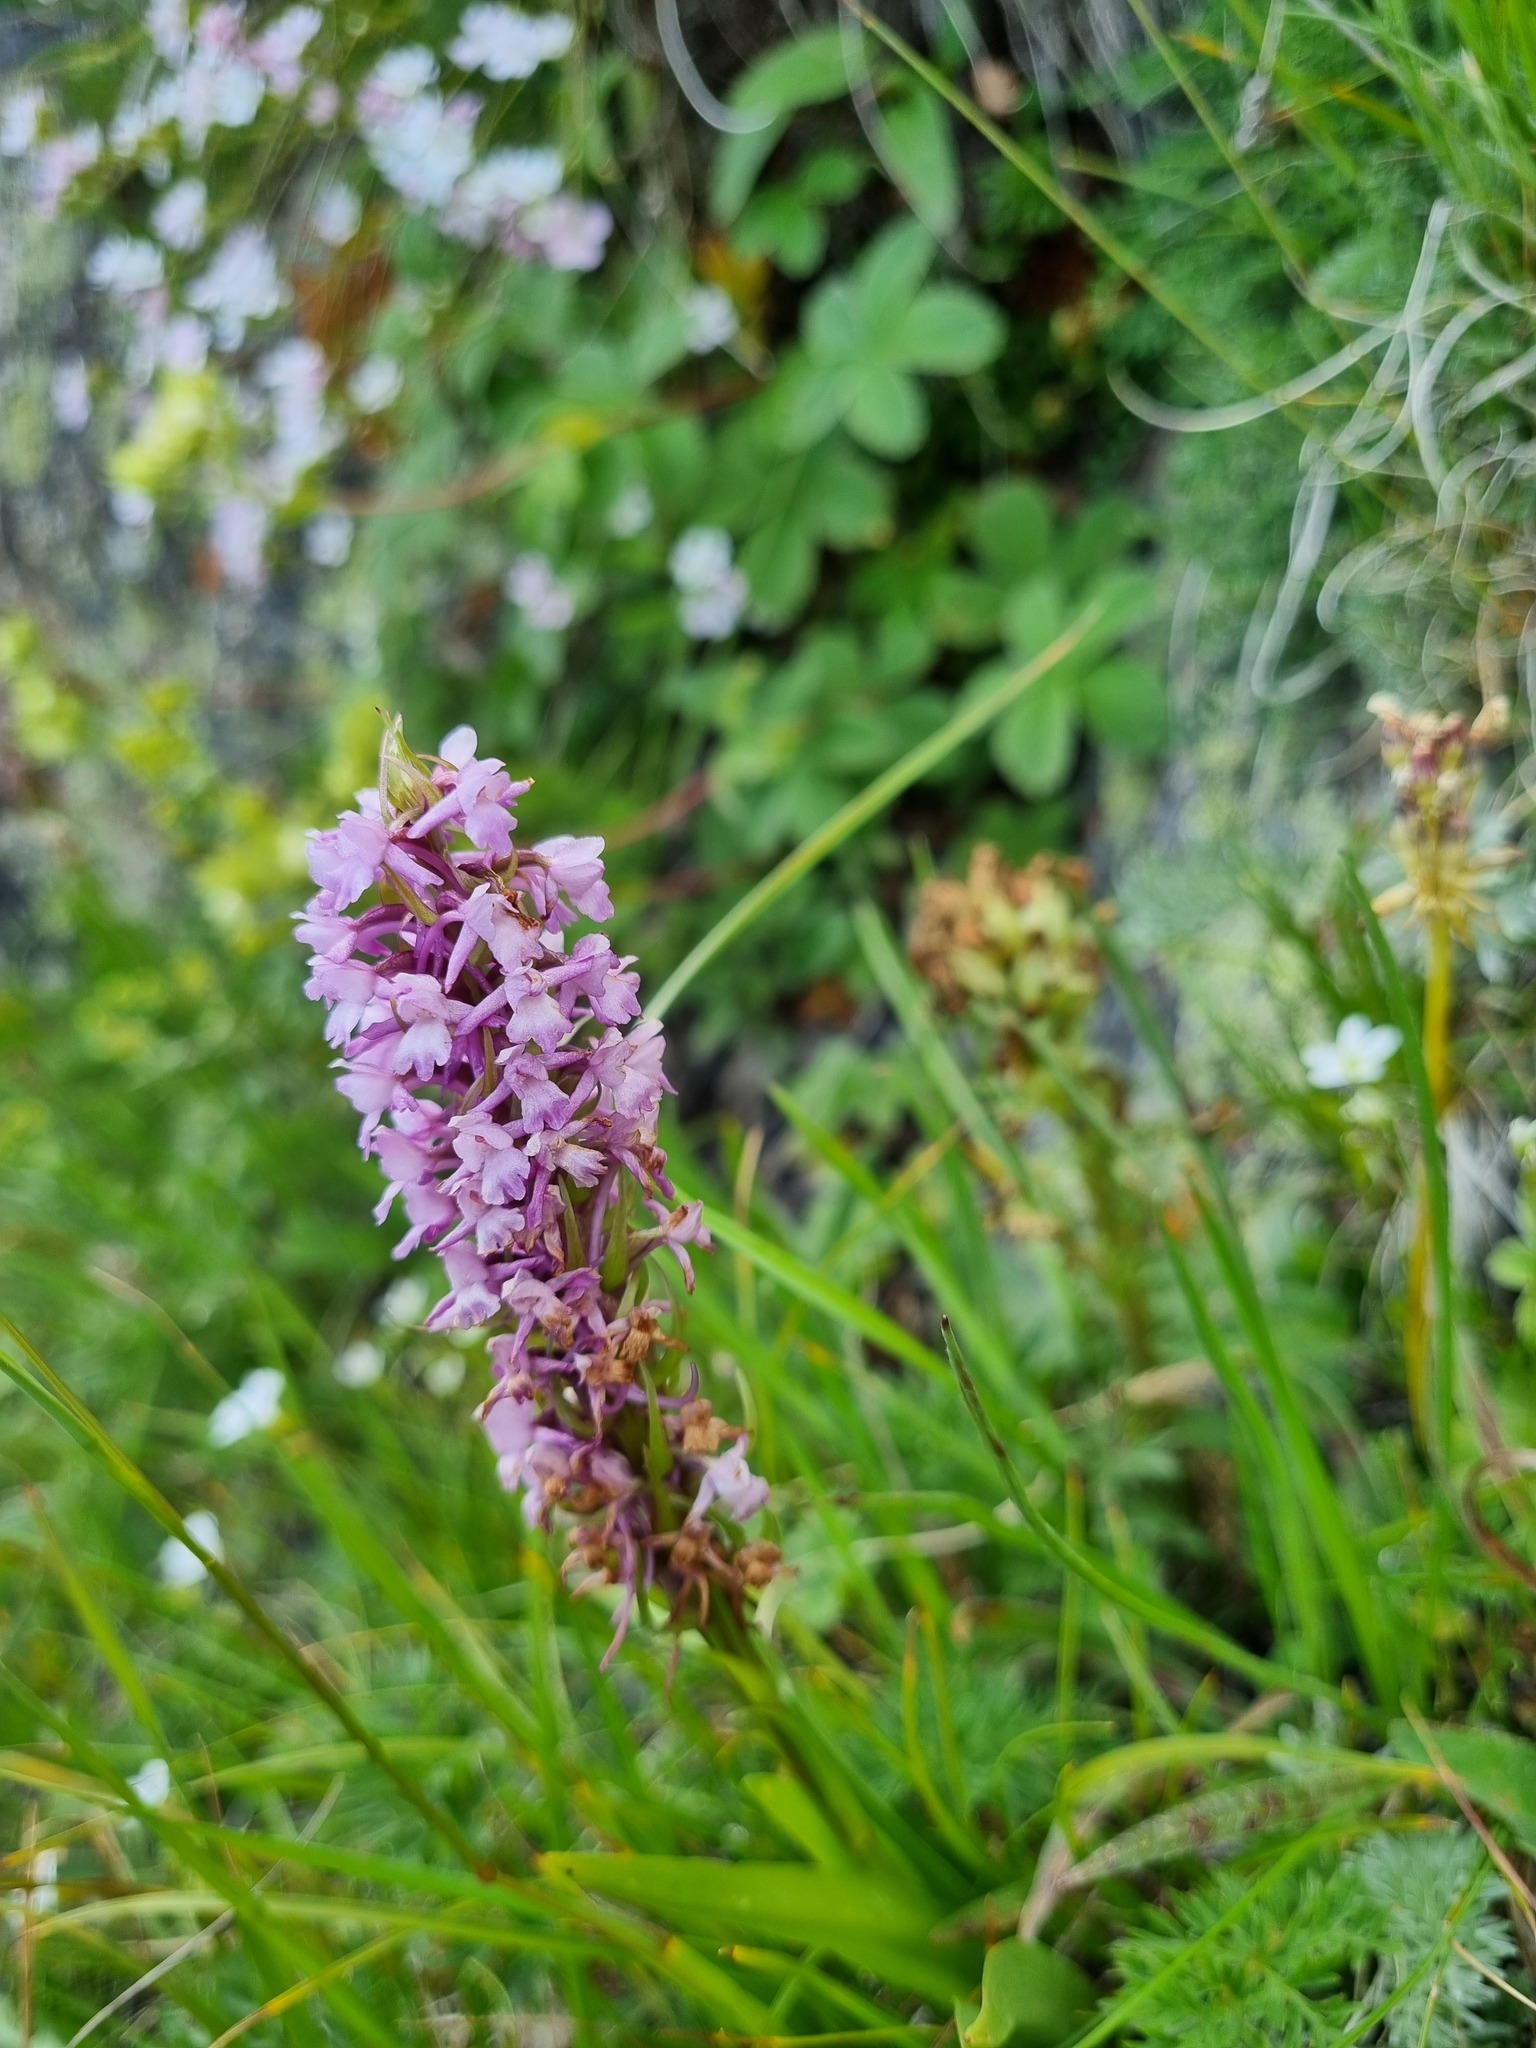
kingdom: Plantae
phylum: Tracheophyta
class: Liliopsida
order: Asparagales
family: Orchidaceae
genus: Gymnadenia
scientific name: Gymnadenia conopsea
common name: Fragrant orchid
